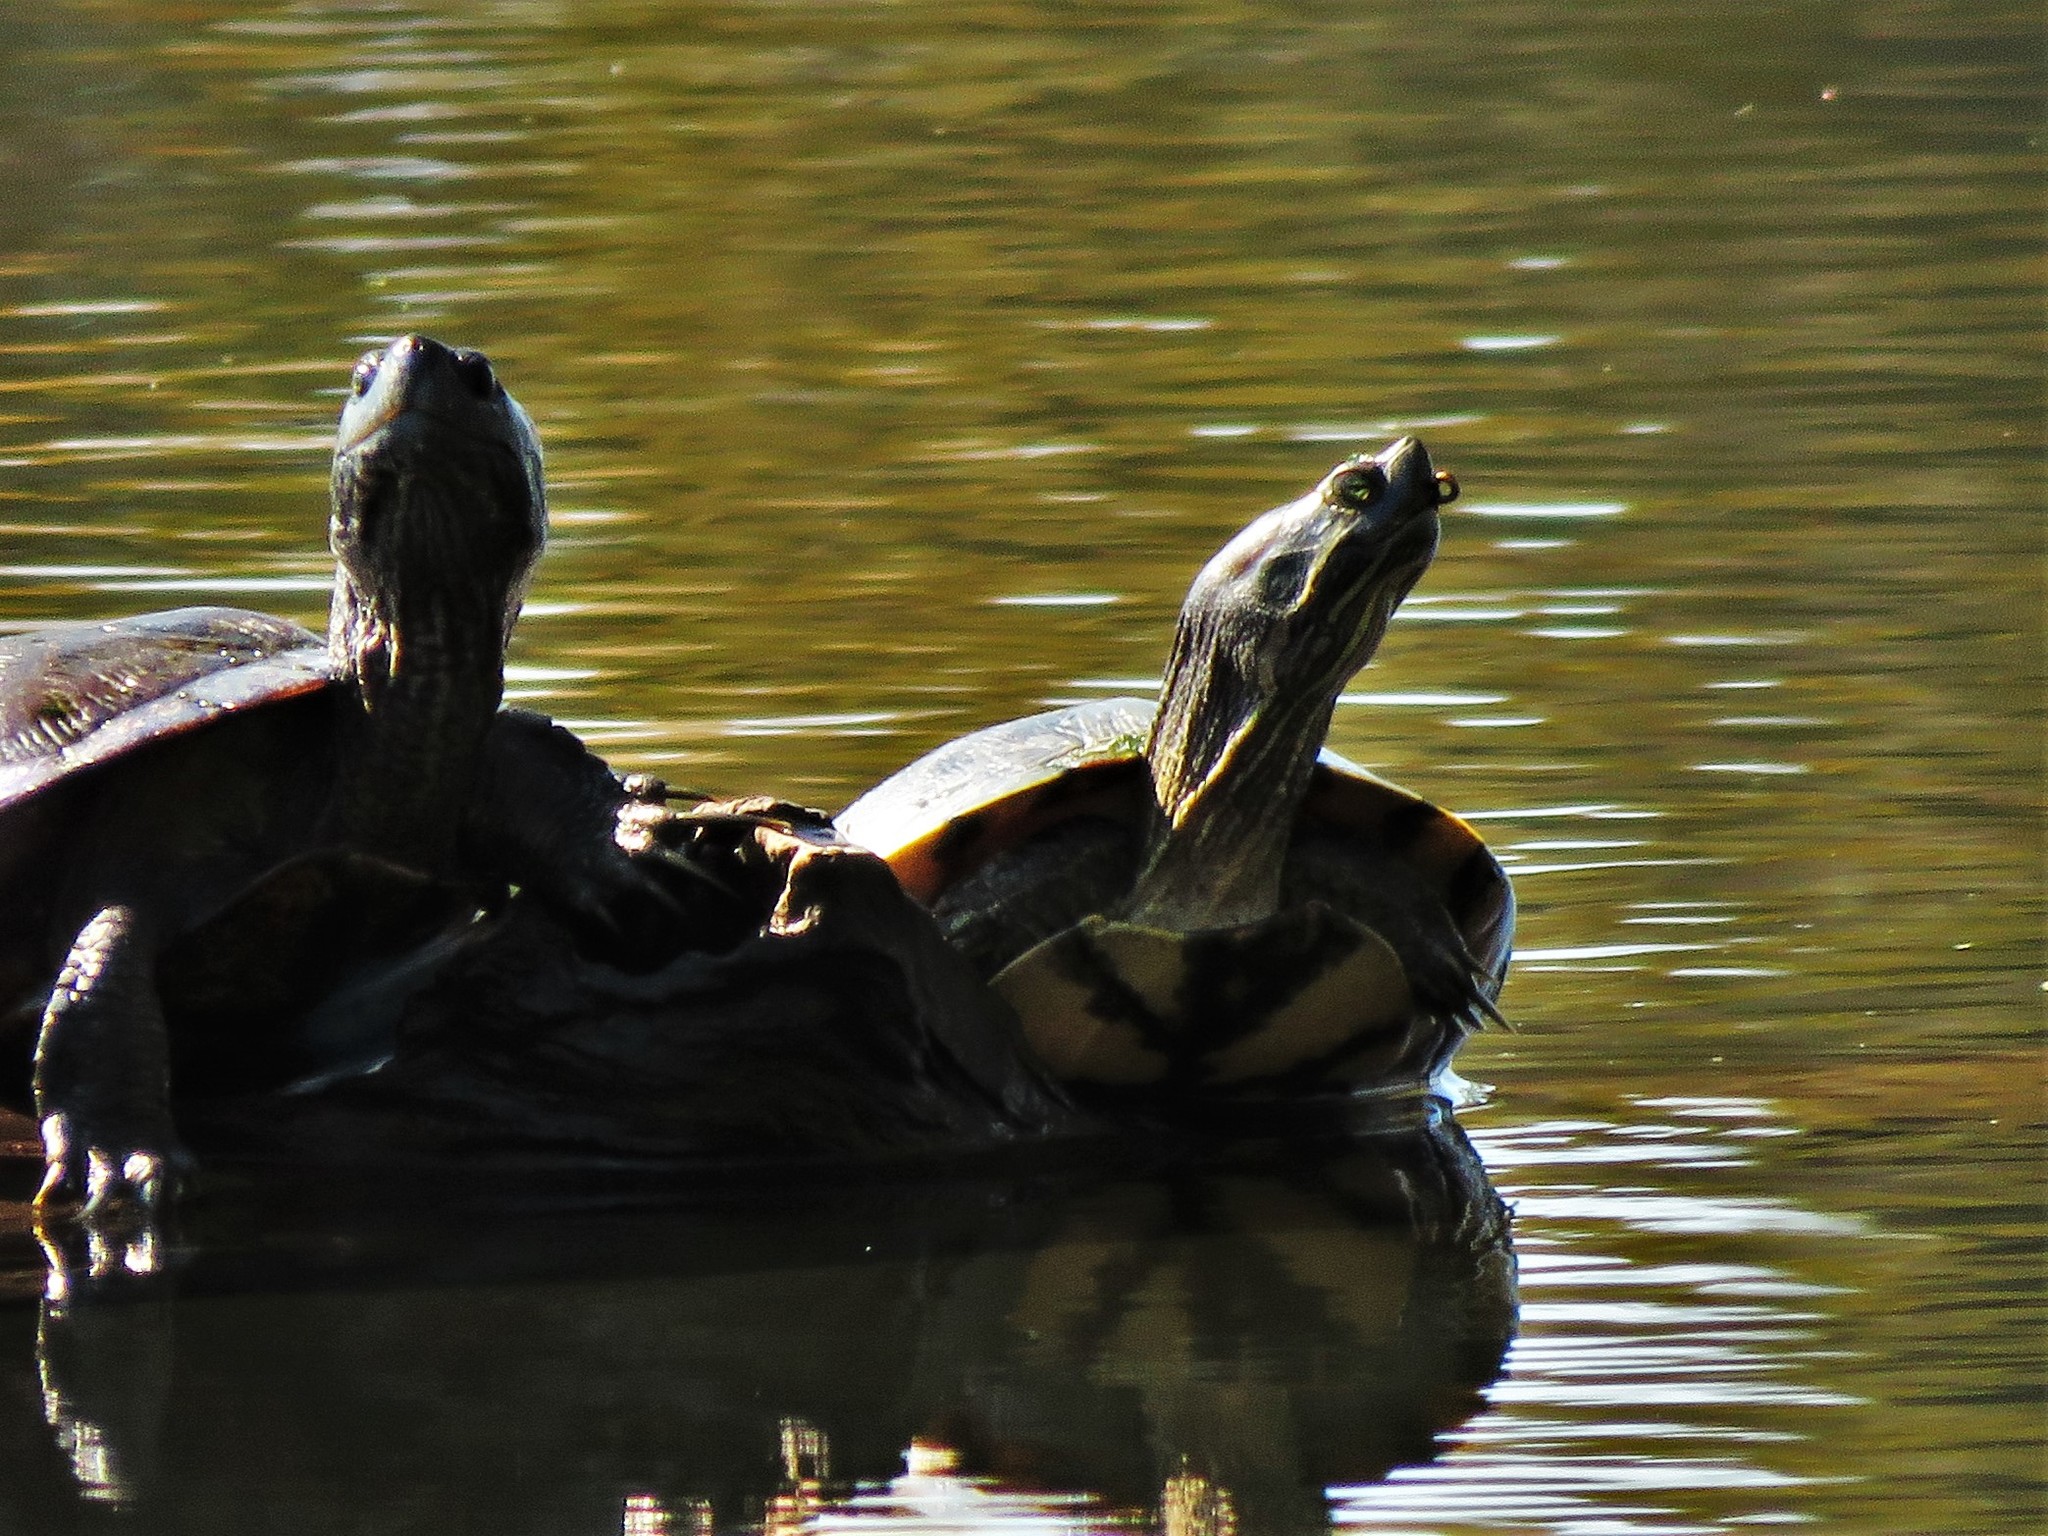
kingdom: Animalia
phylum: Chordata
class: Testudines
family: Emydidae
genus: Trachemys
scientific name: Trachemys scripta
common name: Slider
